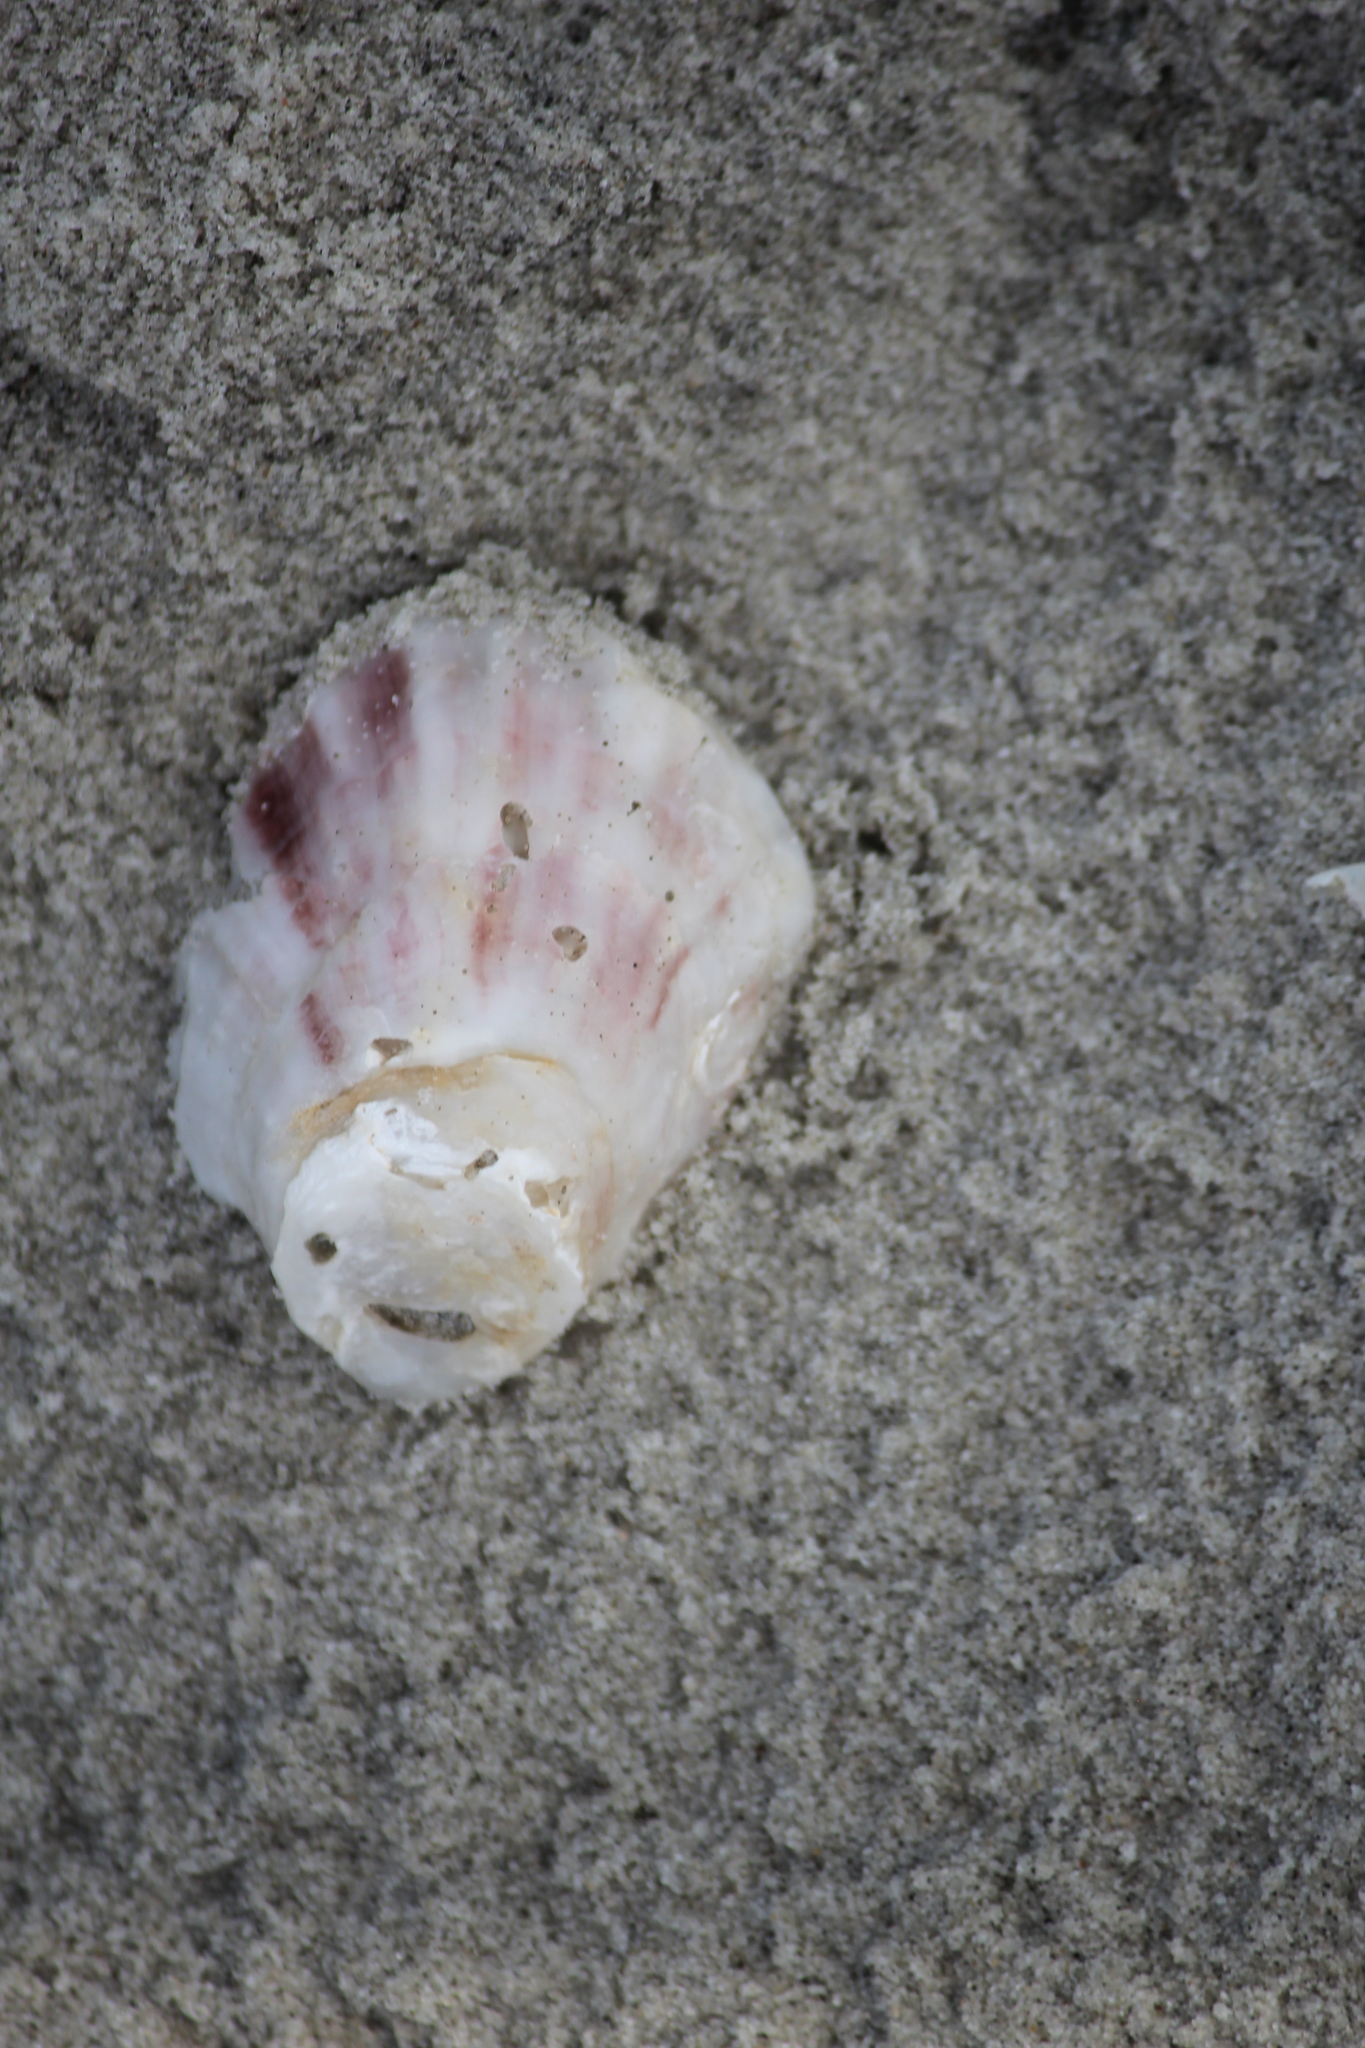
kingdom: Animalia
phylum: Mollusca
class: Bivalvia
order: Ostreida
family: Ostreidae
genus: Crassostrea
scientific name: Crassostrea virginica
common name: American oyster
